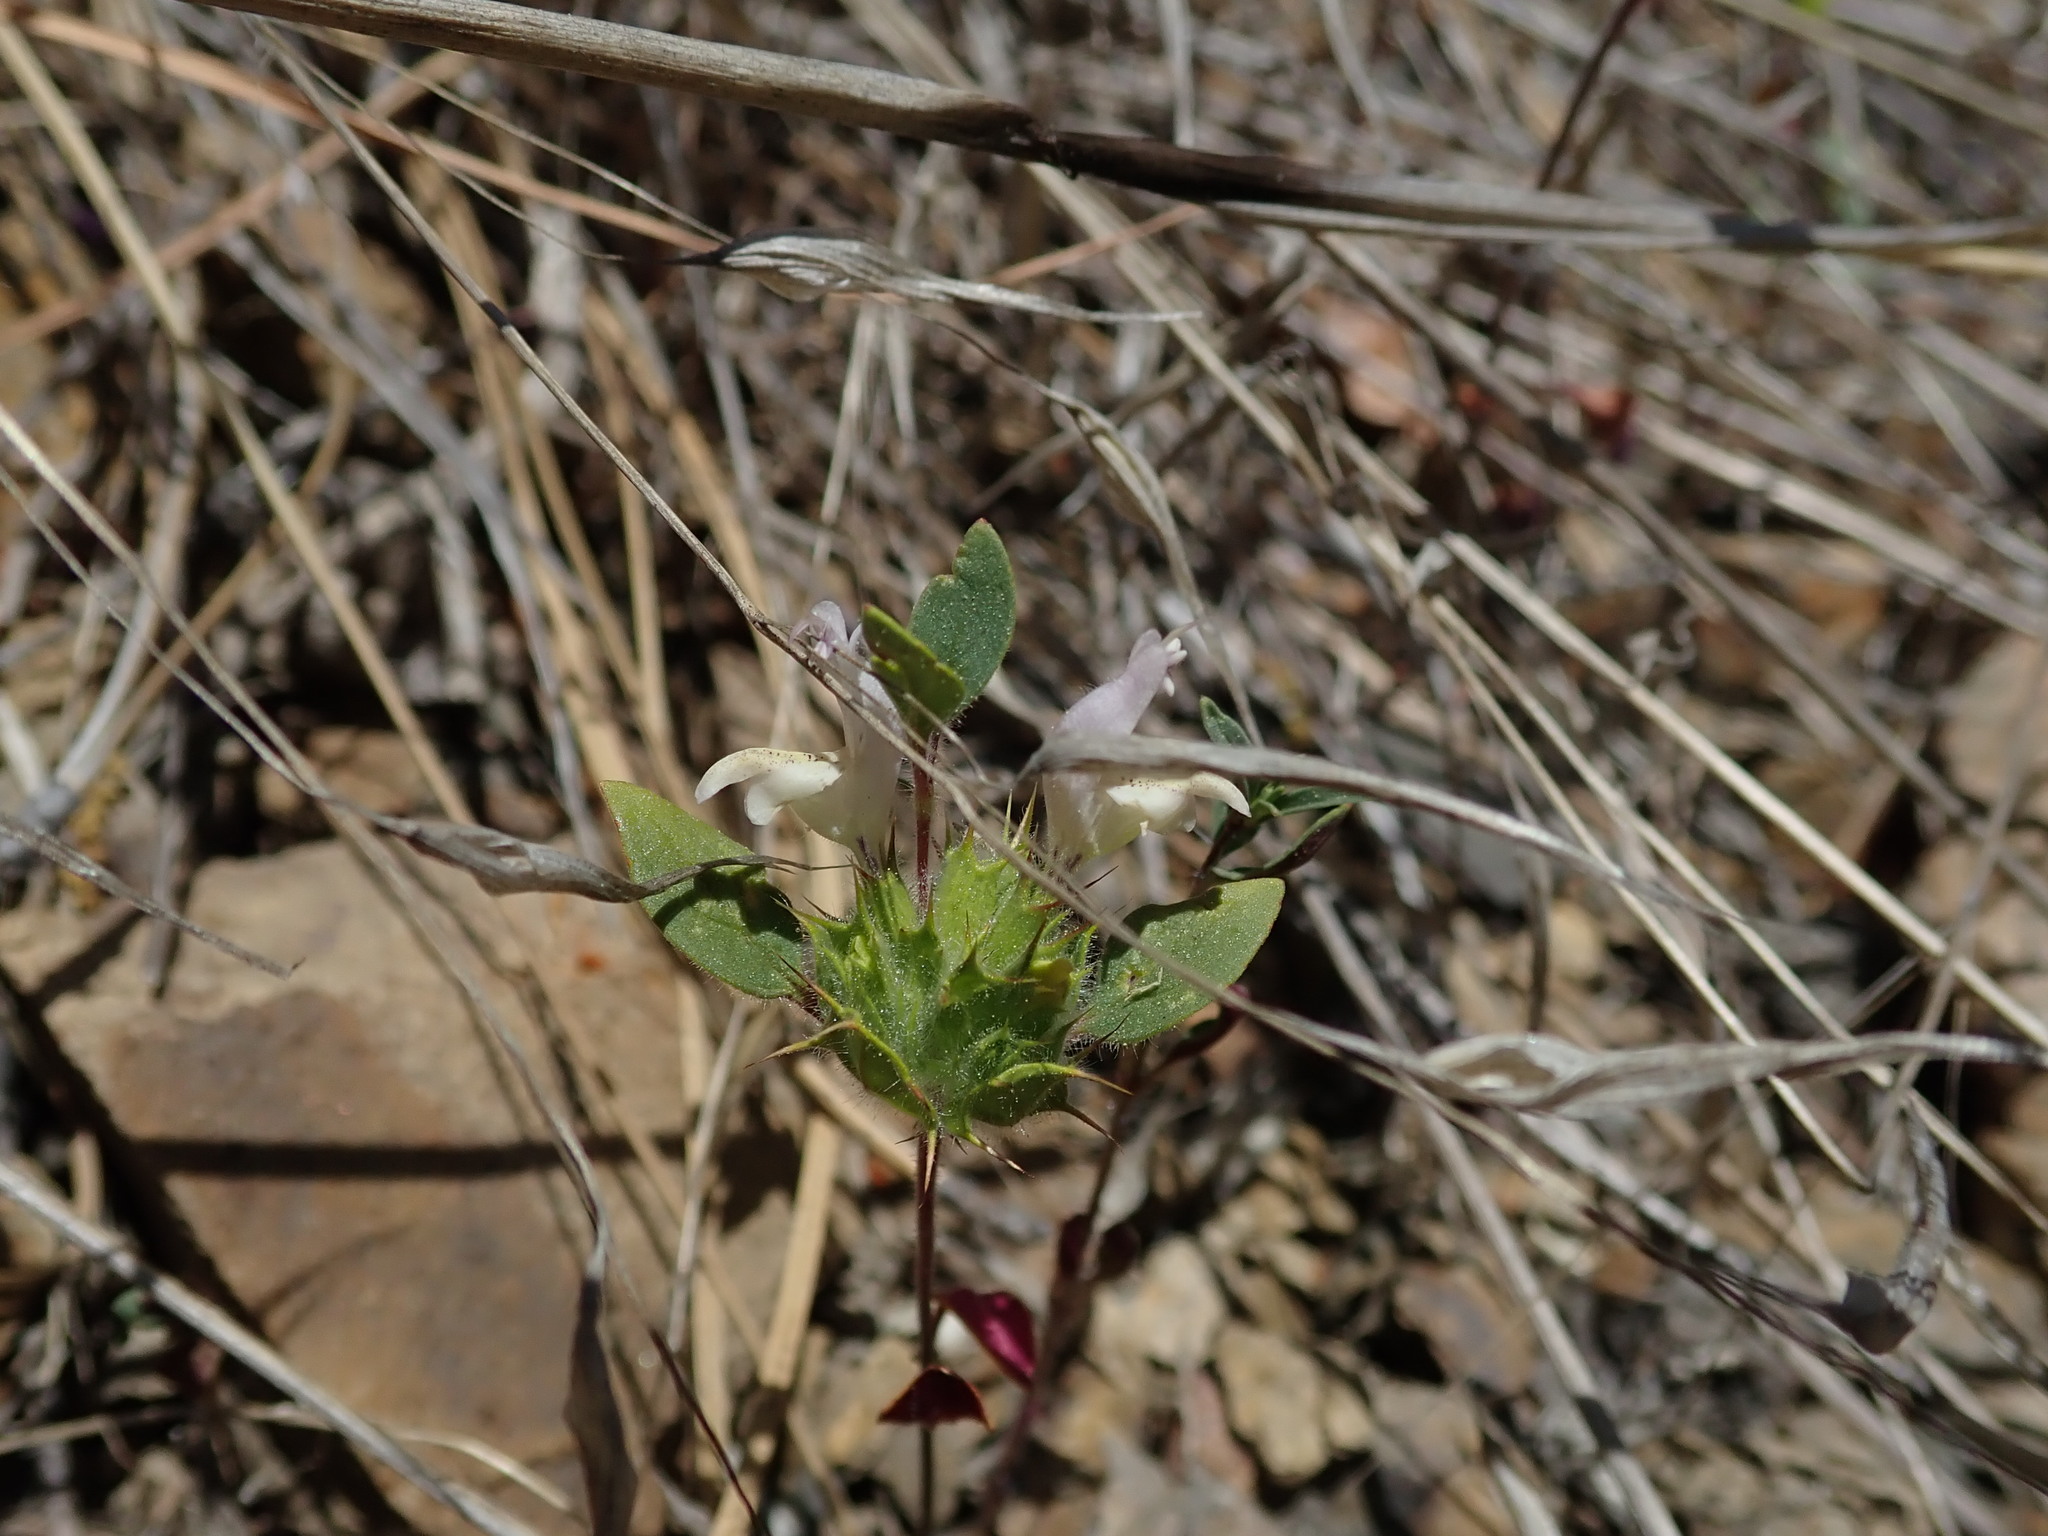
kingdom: Plantae
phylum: Tracheophyta
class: Magnoliopsida
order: Lamiales
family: Lamiaceae
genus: Acanthomintha
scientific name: Acanthomintha lanceolata
